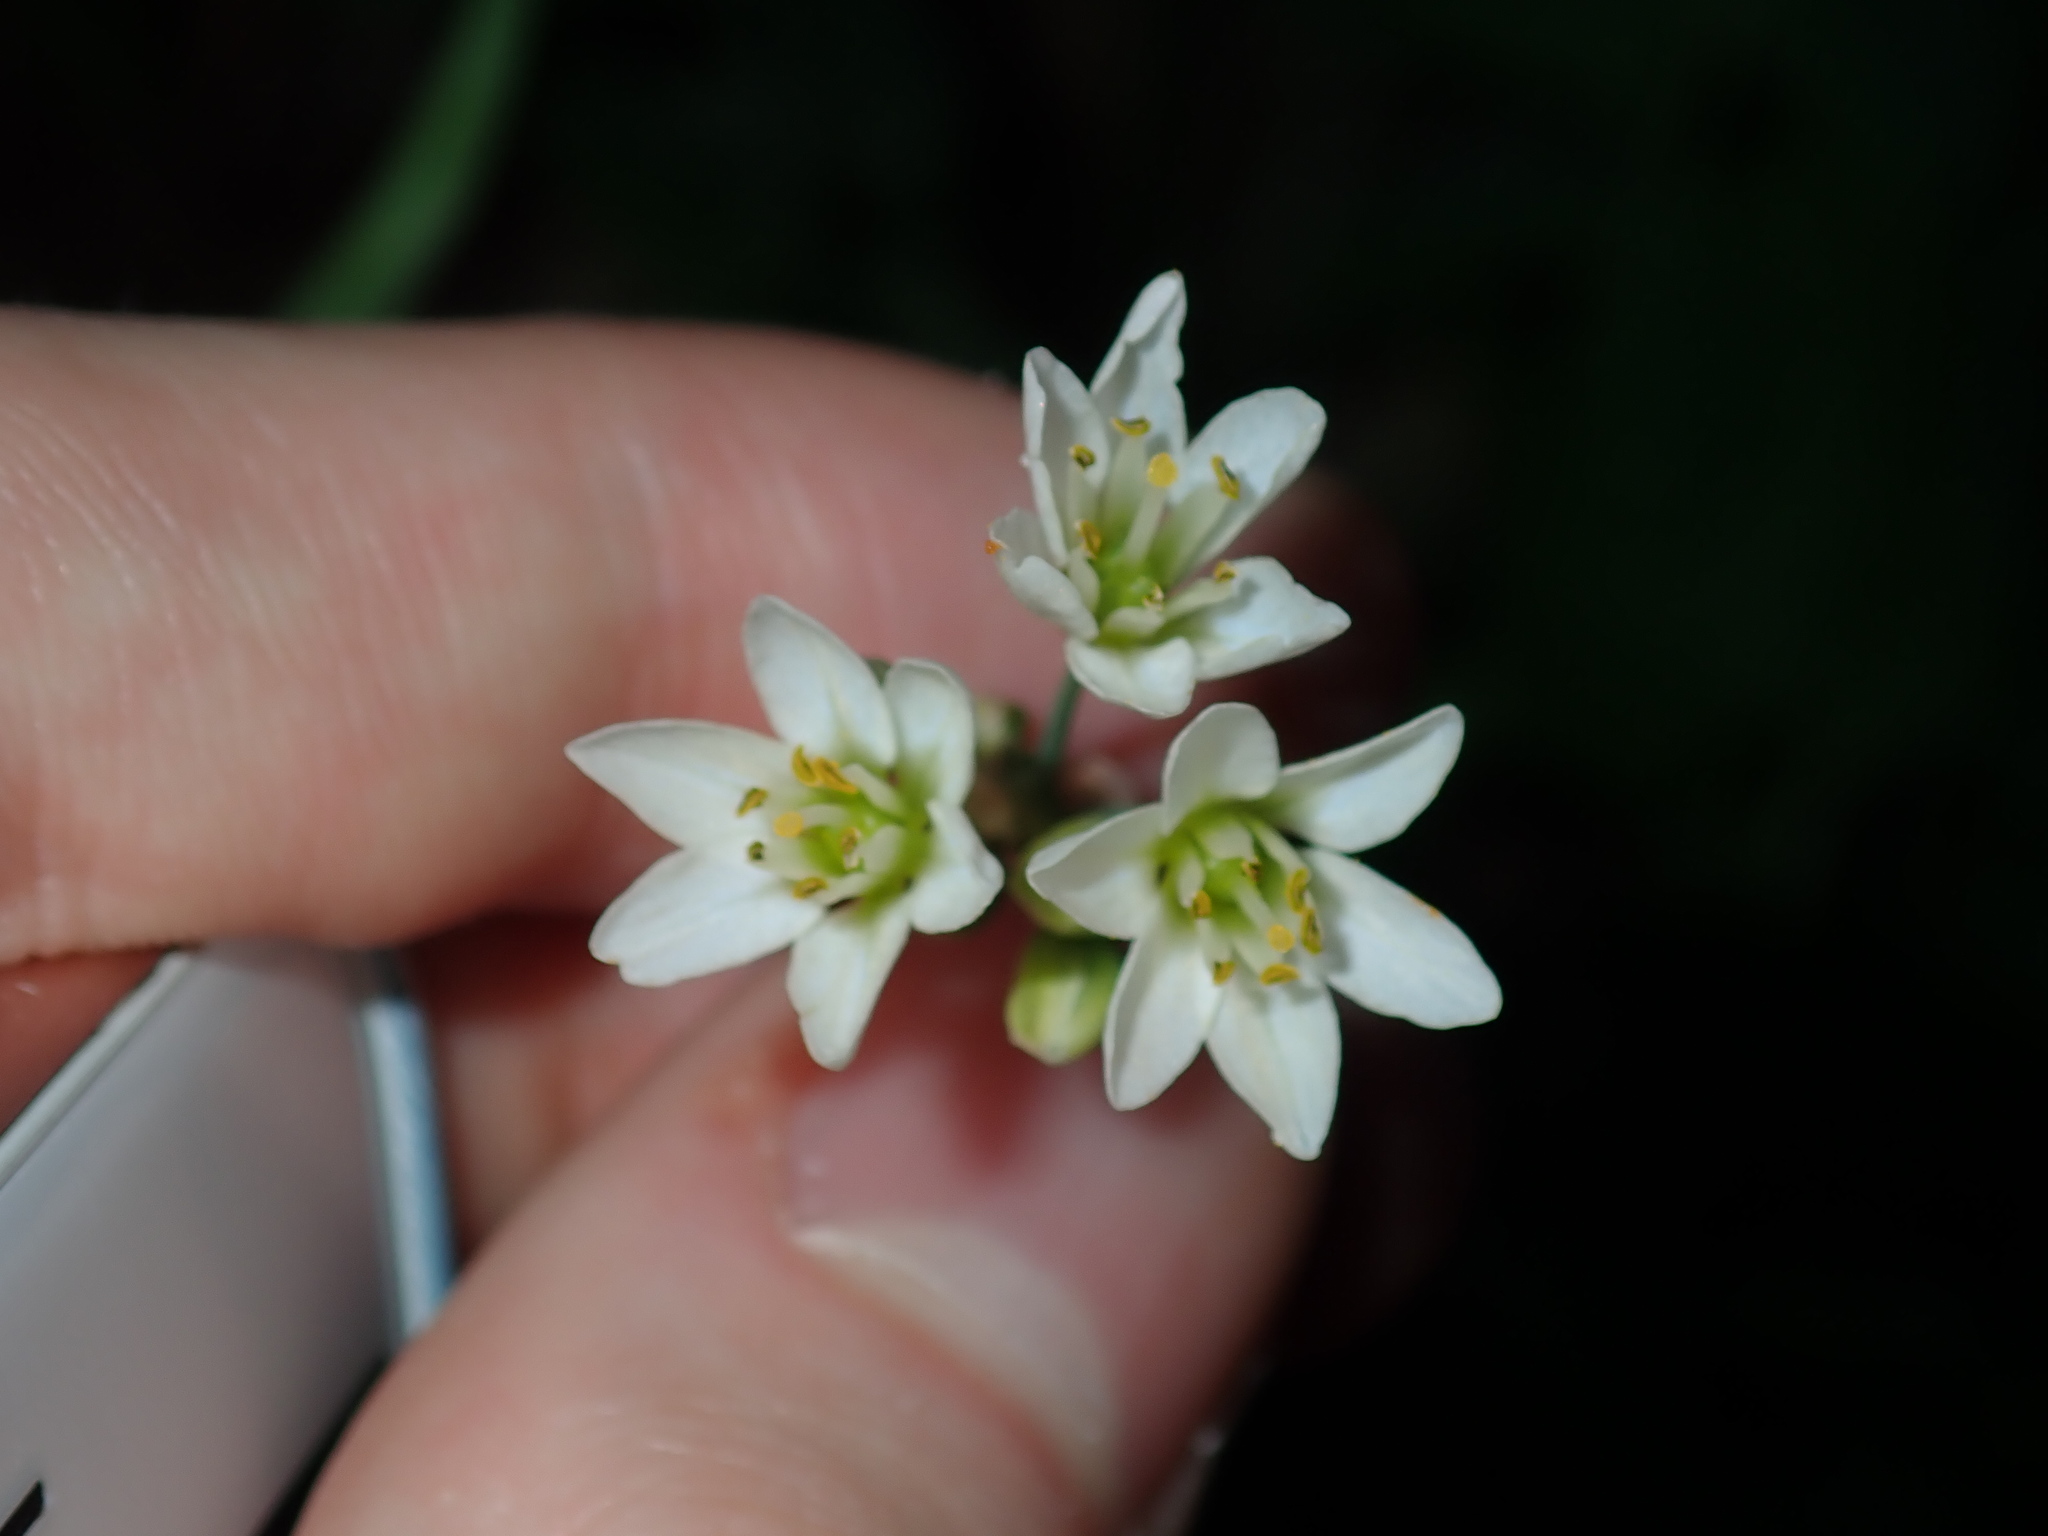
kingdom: Plantae
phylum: Tracheophyta
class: Liliopsida
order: Asparagales
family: Amaryllidaceae
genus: Nothoscordum
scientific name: Nothoscordum gracile
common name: Slender false garlic
